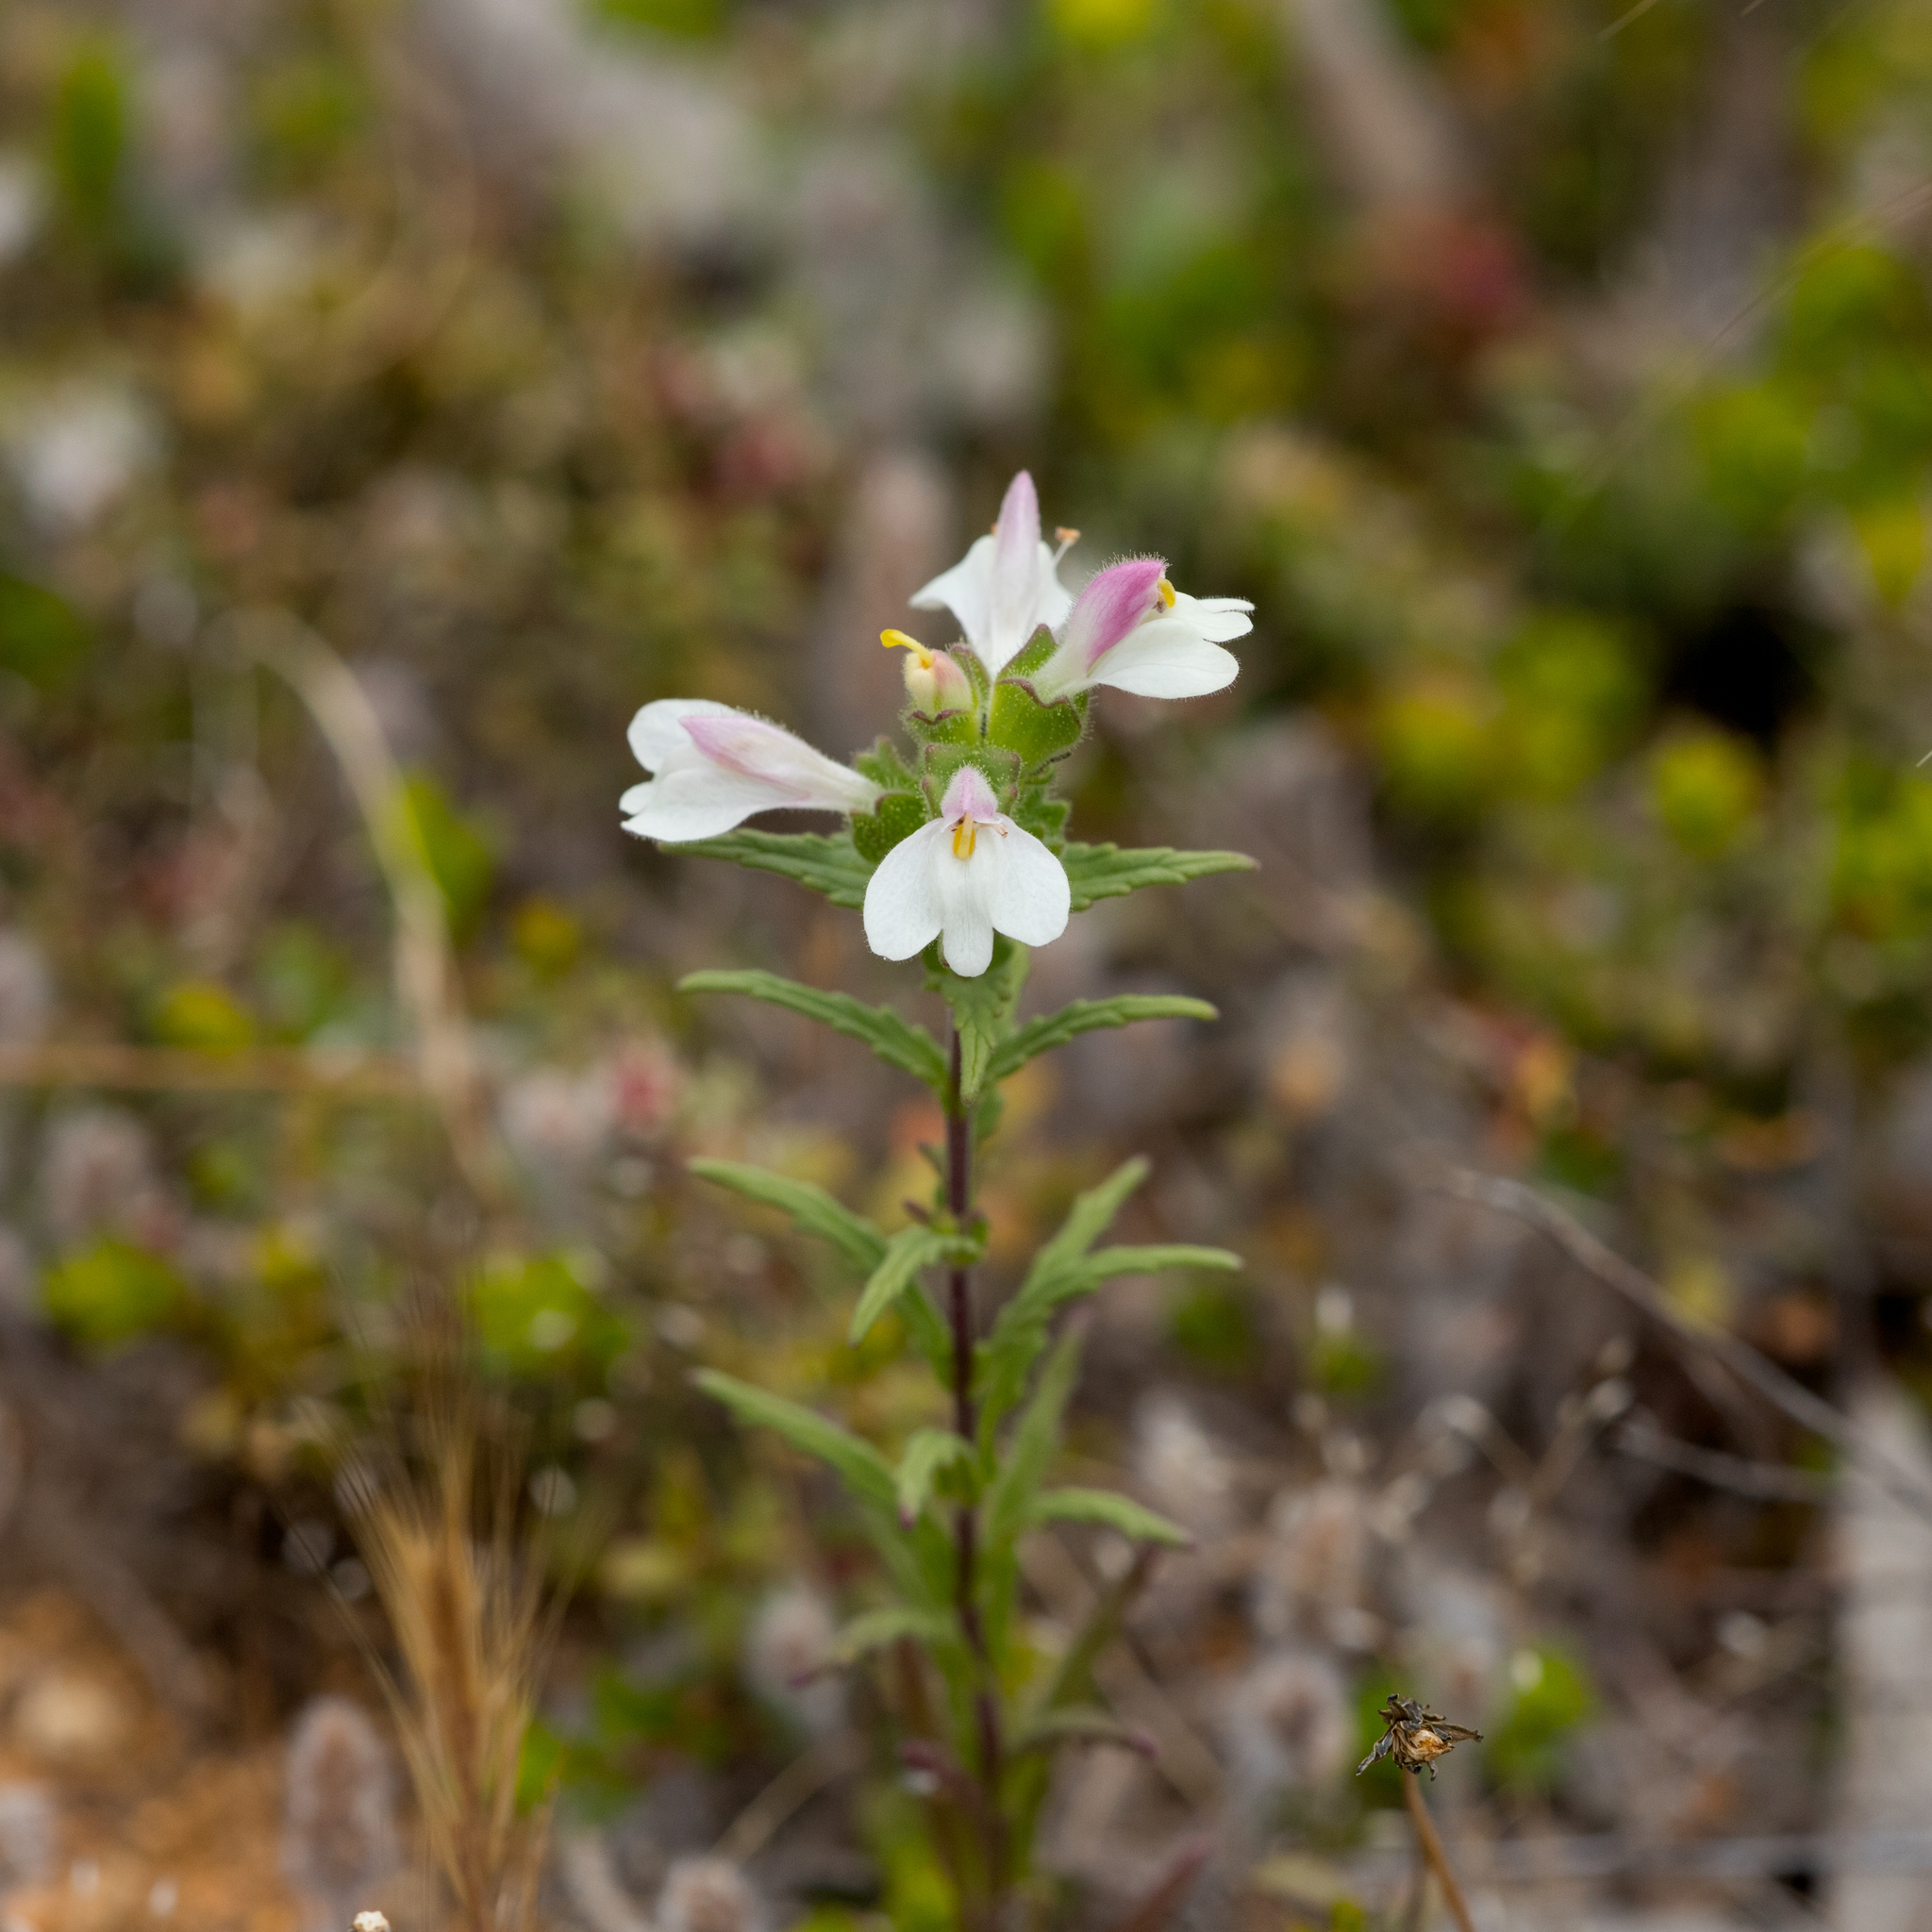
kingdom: Plantae
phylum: Tracheophyta
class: Magnoliopsida
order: Lamiales
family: Orobanchaceae
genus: Bellardia
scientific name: Bellardia trixago
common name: Mediterranean lineseed
